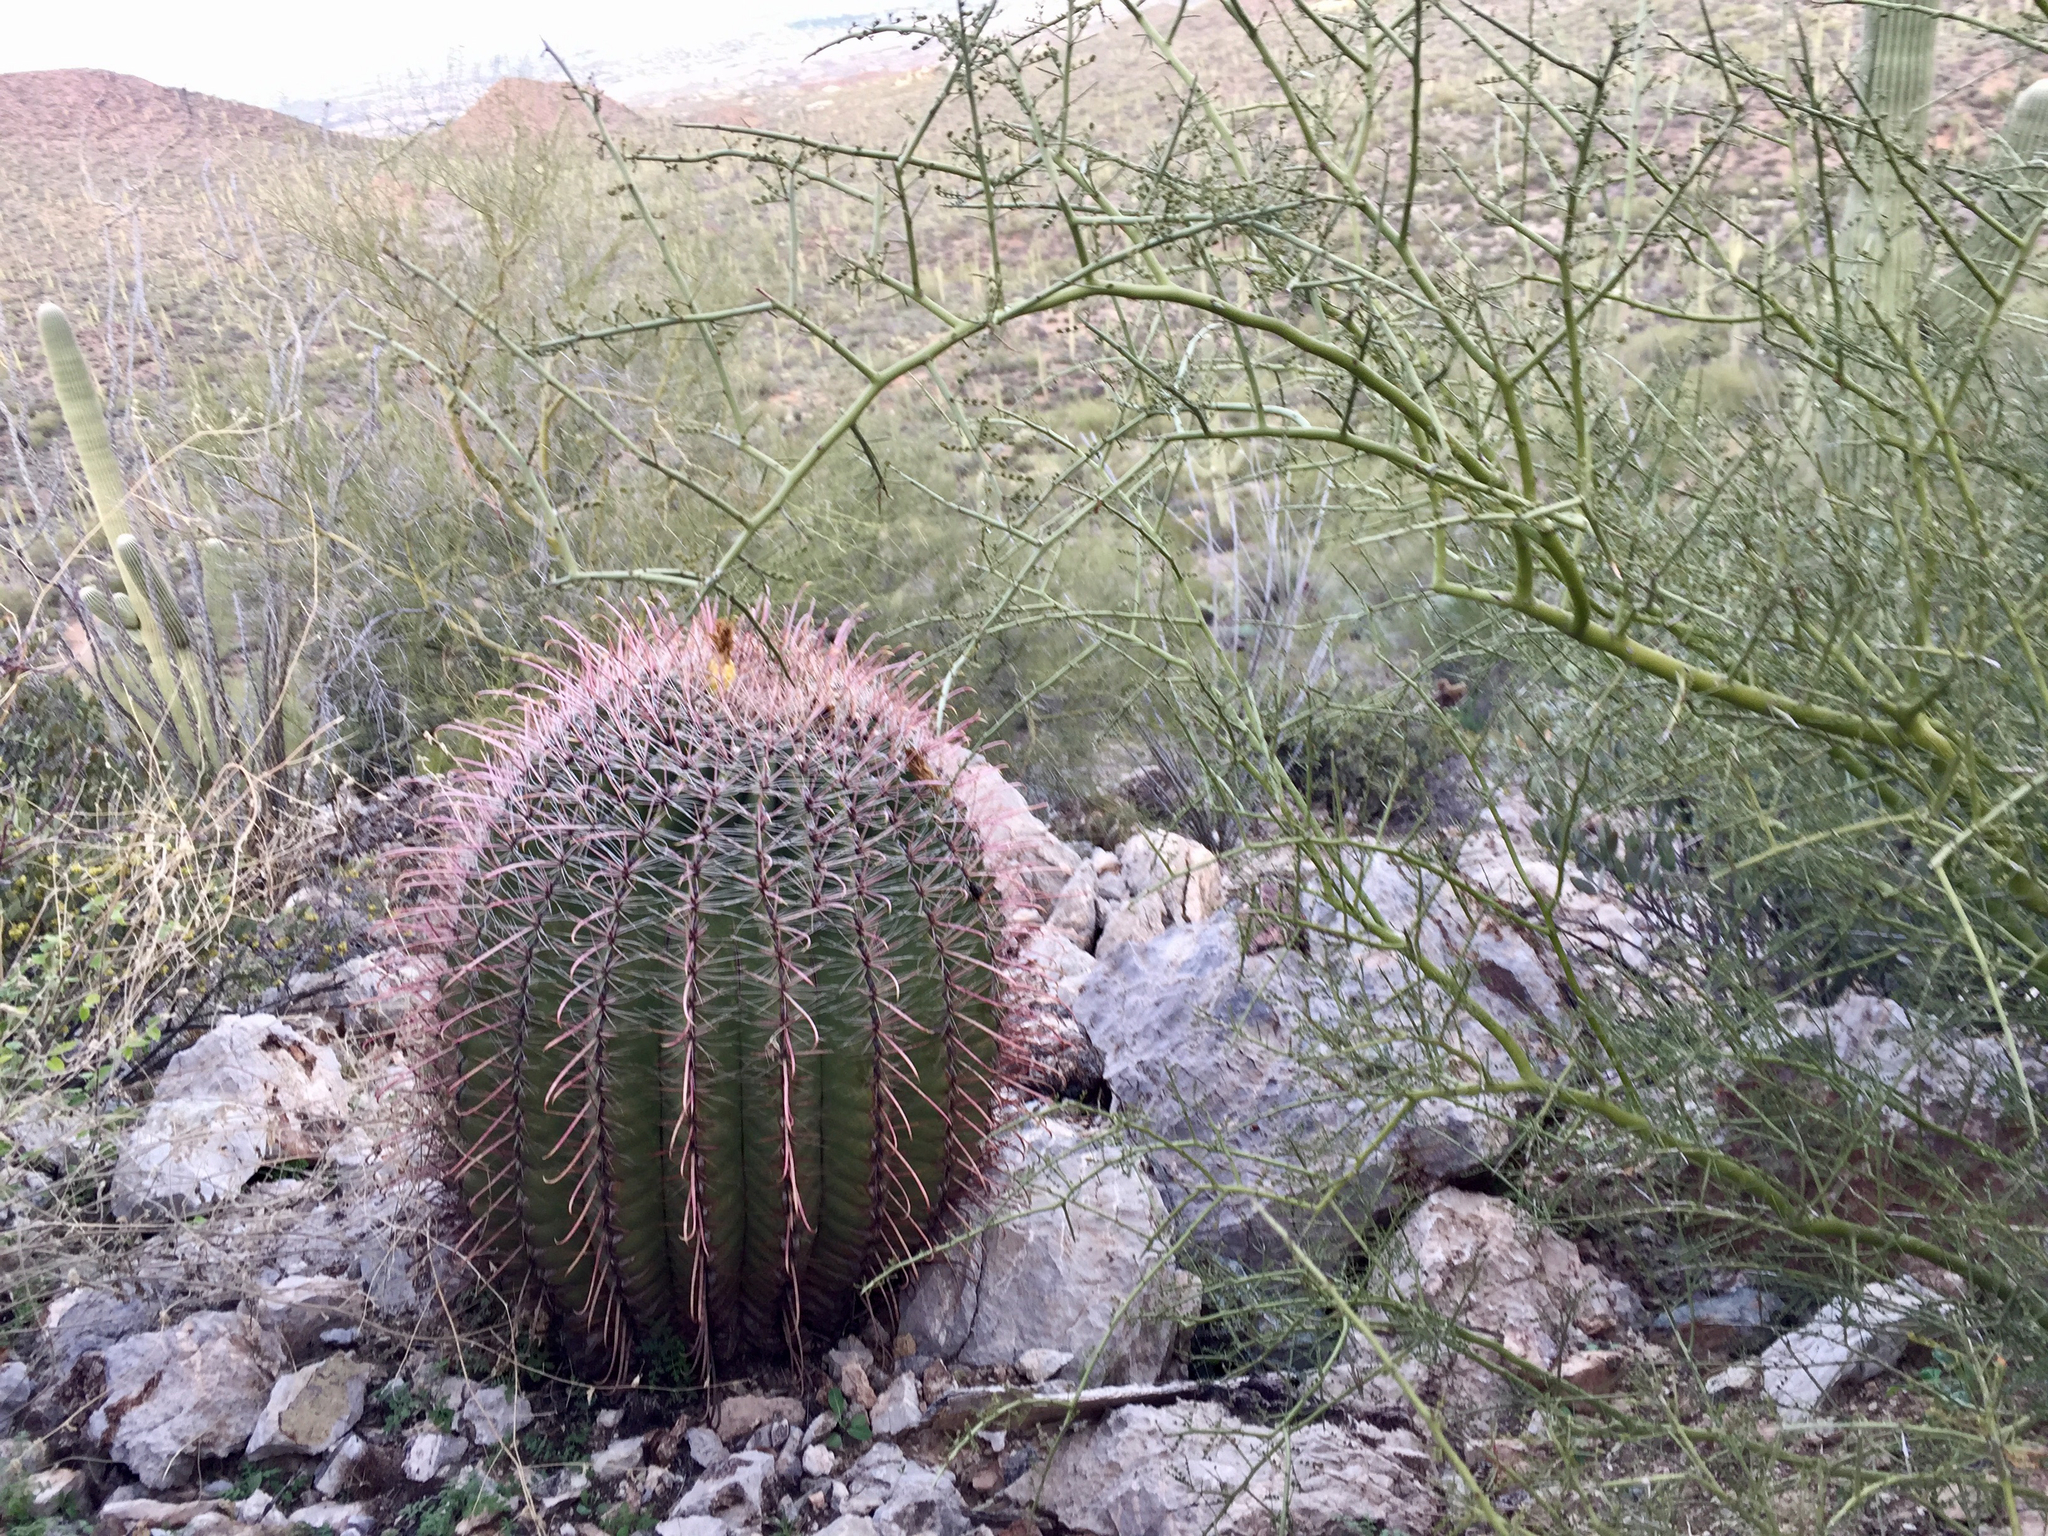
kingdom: Plantae
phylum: Tracheophyta
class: Magnoliopsida
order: Caryophyllales
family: Cactaceae
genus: Ferocactus
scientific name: Ferocactus wislizeni
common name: Candy barrel cactus
